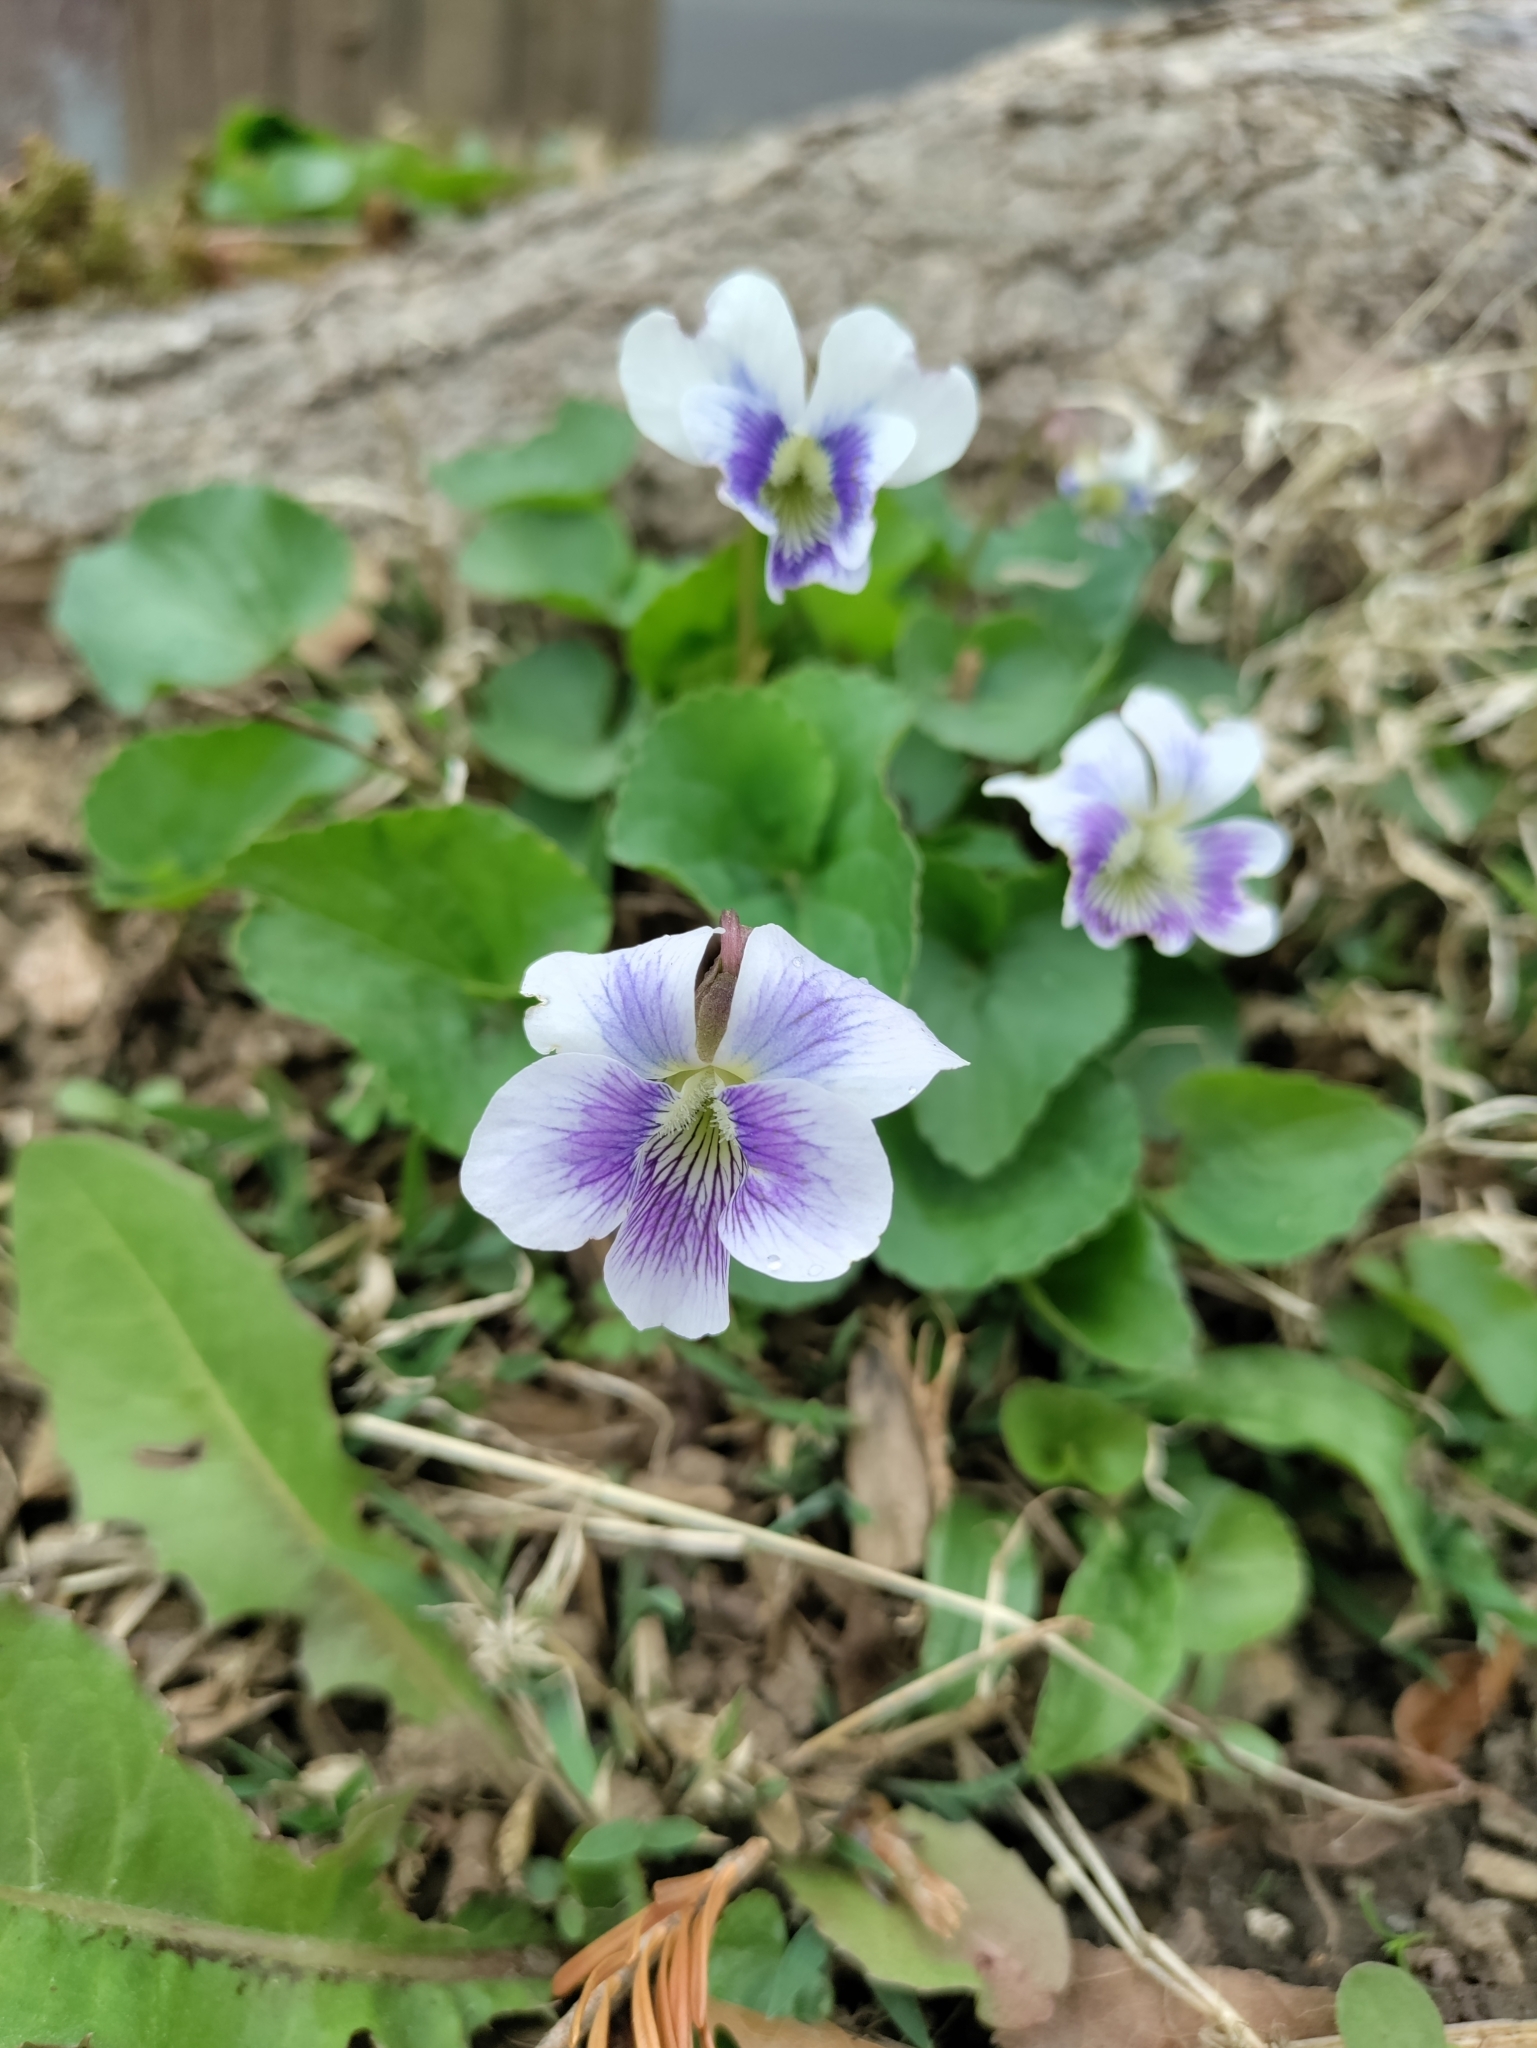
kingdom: Plantae
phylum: Tracheophyta
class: Magnoliopsida
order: Malpighiales
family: Violaceae
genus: Viola
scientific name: Viola sororia
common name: Dooryard violet
